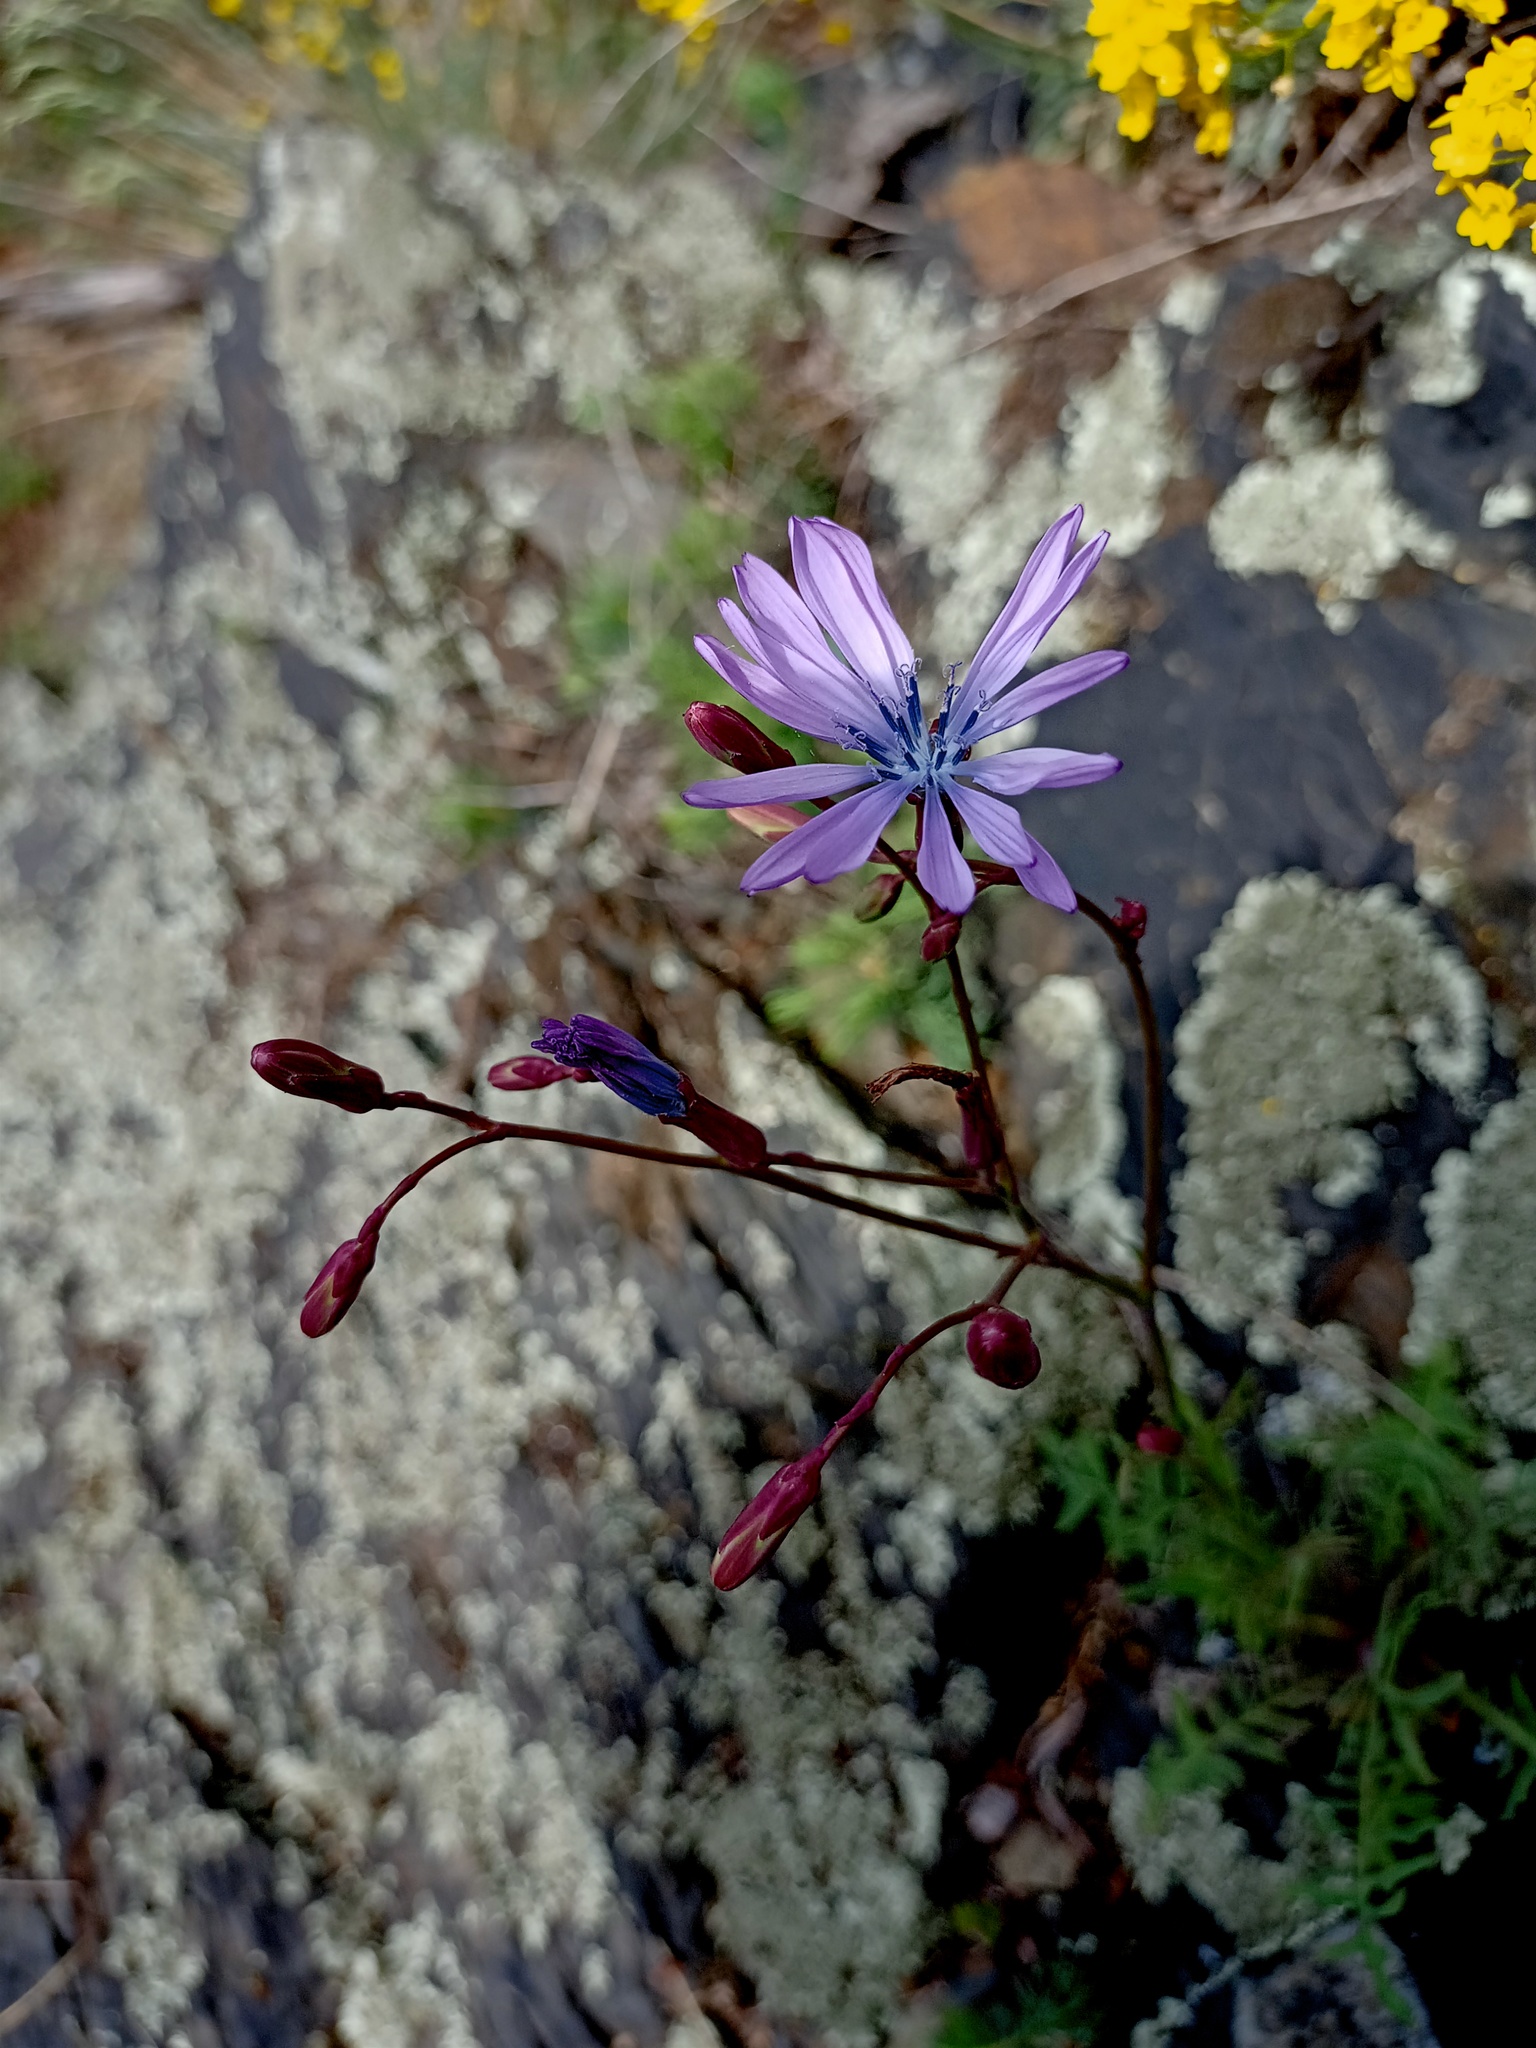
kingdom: Plantae
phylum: Tracheophyta
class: Magnoliopsida
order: Asterales
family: Asteraceae
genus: Lactuca
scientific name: Lactuca perennis
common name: Mountain lettuce
